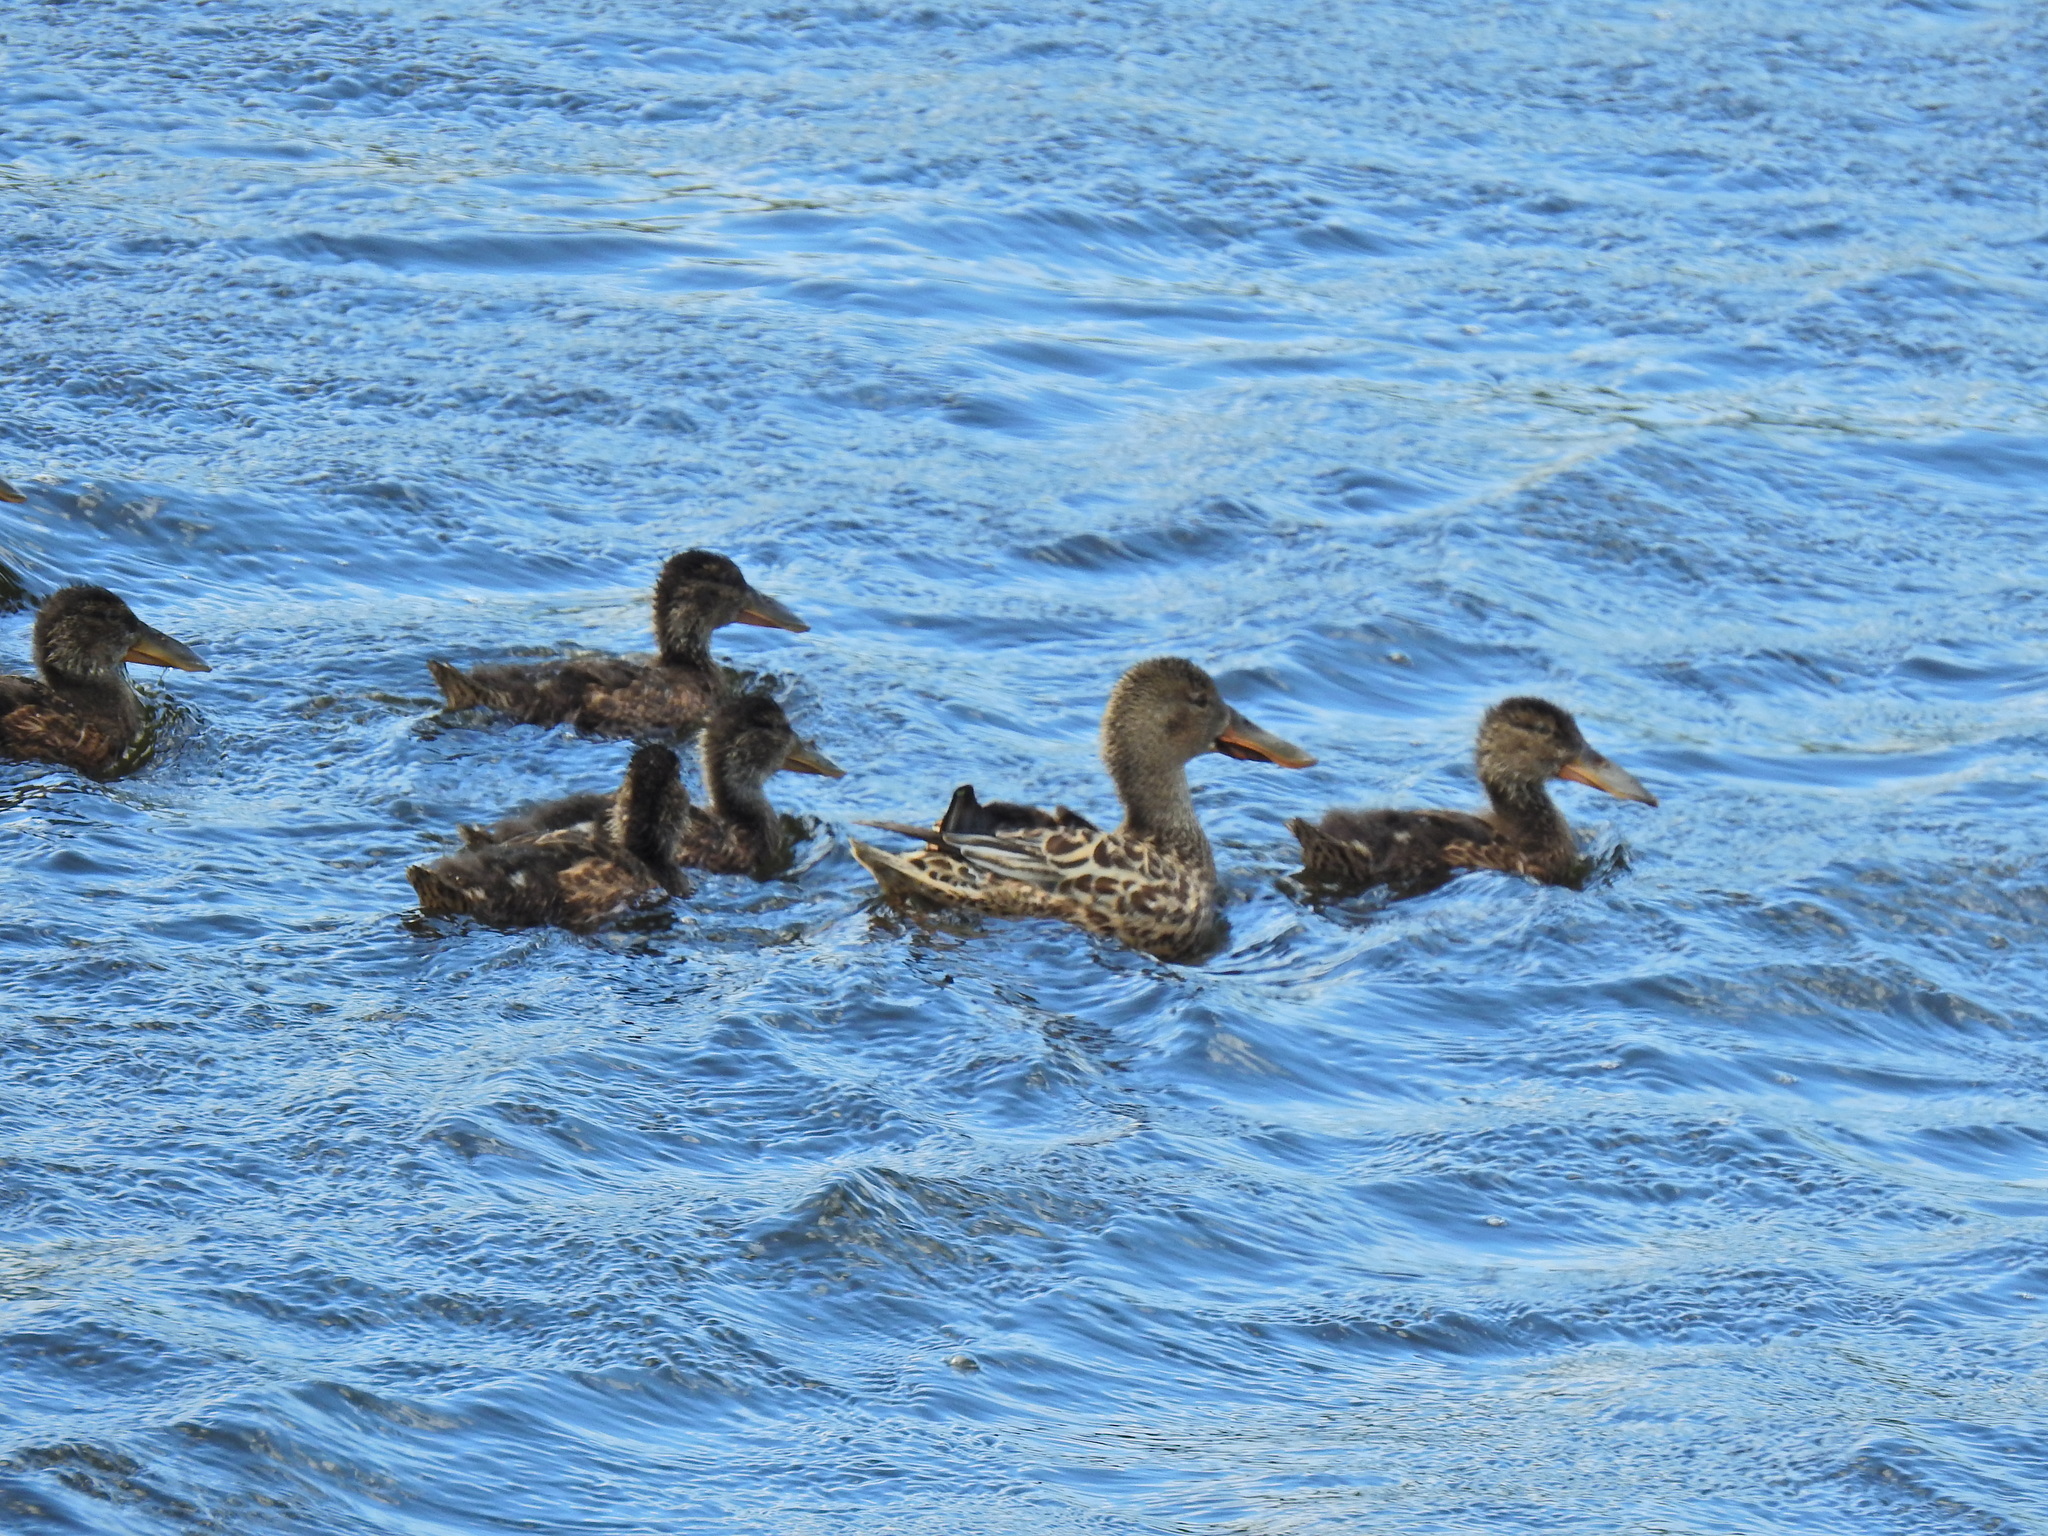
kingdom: Animalia
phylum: Chordata
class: Aves
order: Anseriformes
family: Anatidae
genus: Spatula
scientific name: Spatula clypeata
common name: Northern shoveler
